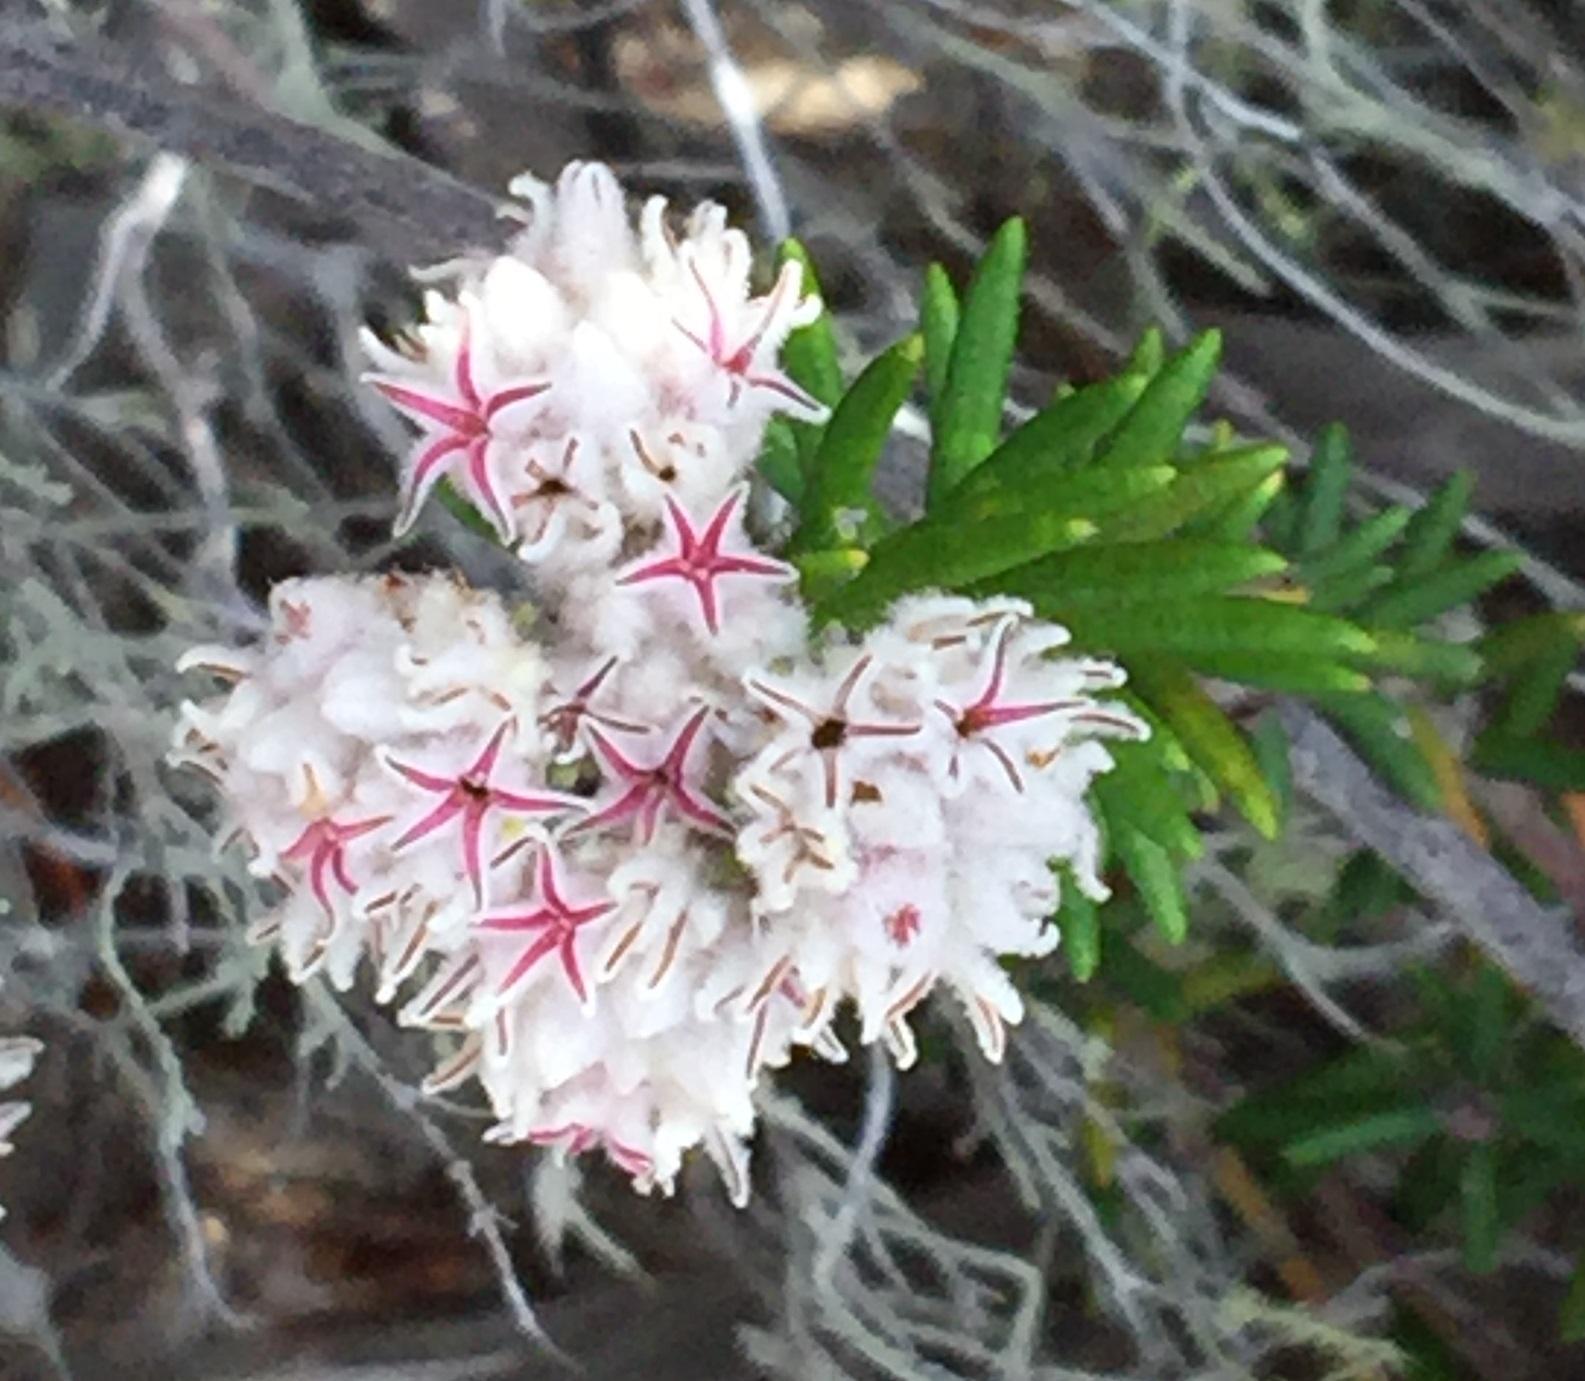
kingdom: Plantae
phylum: Tracheophyta
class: Magnoliopsida
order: Rosales
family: Rhamnaceae
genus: Trichocephalus
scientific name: Trichocephalus stipularis
